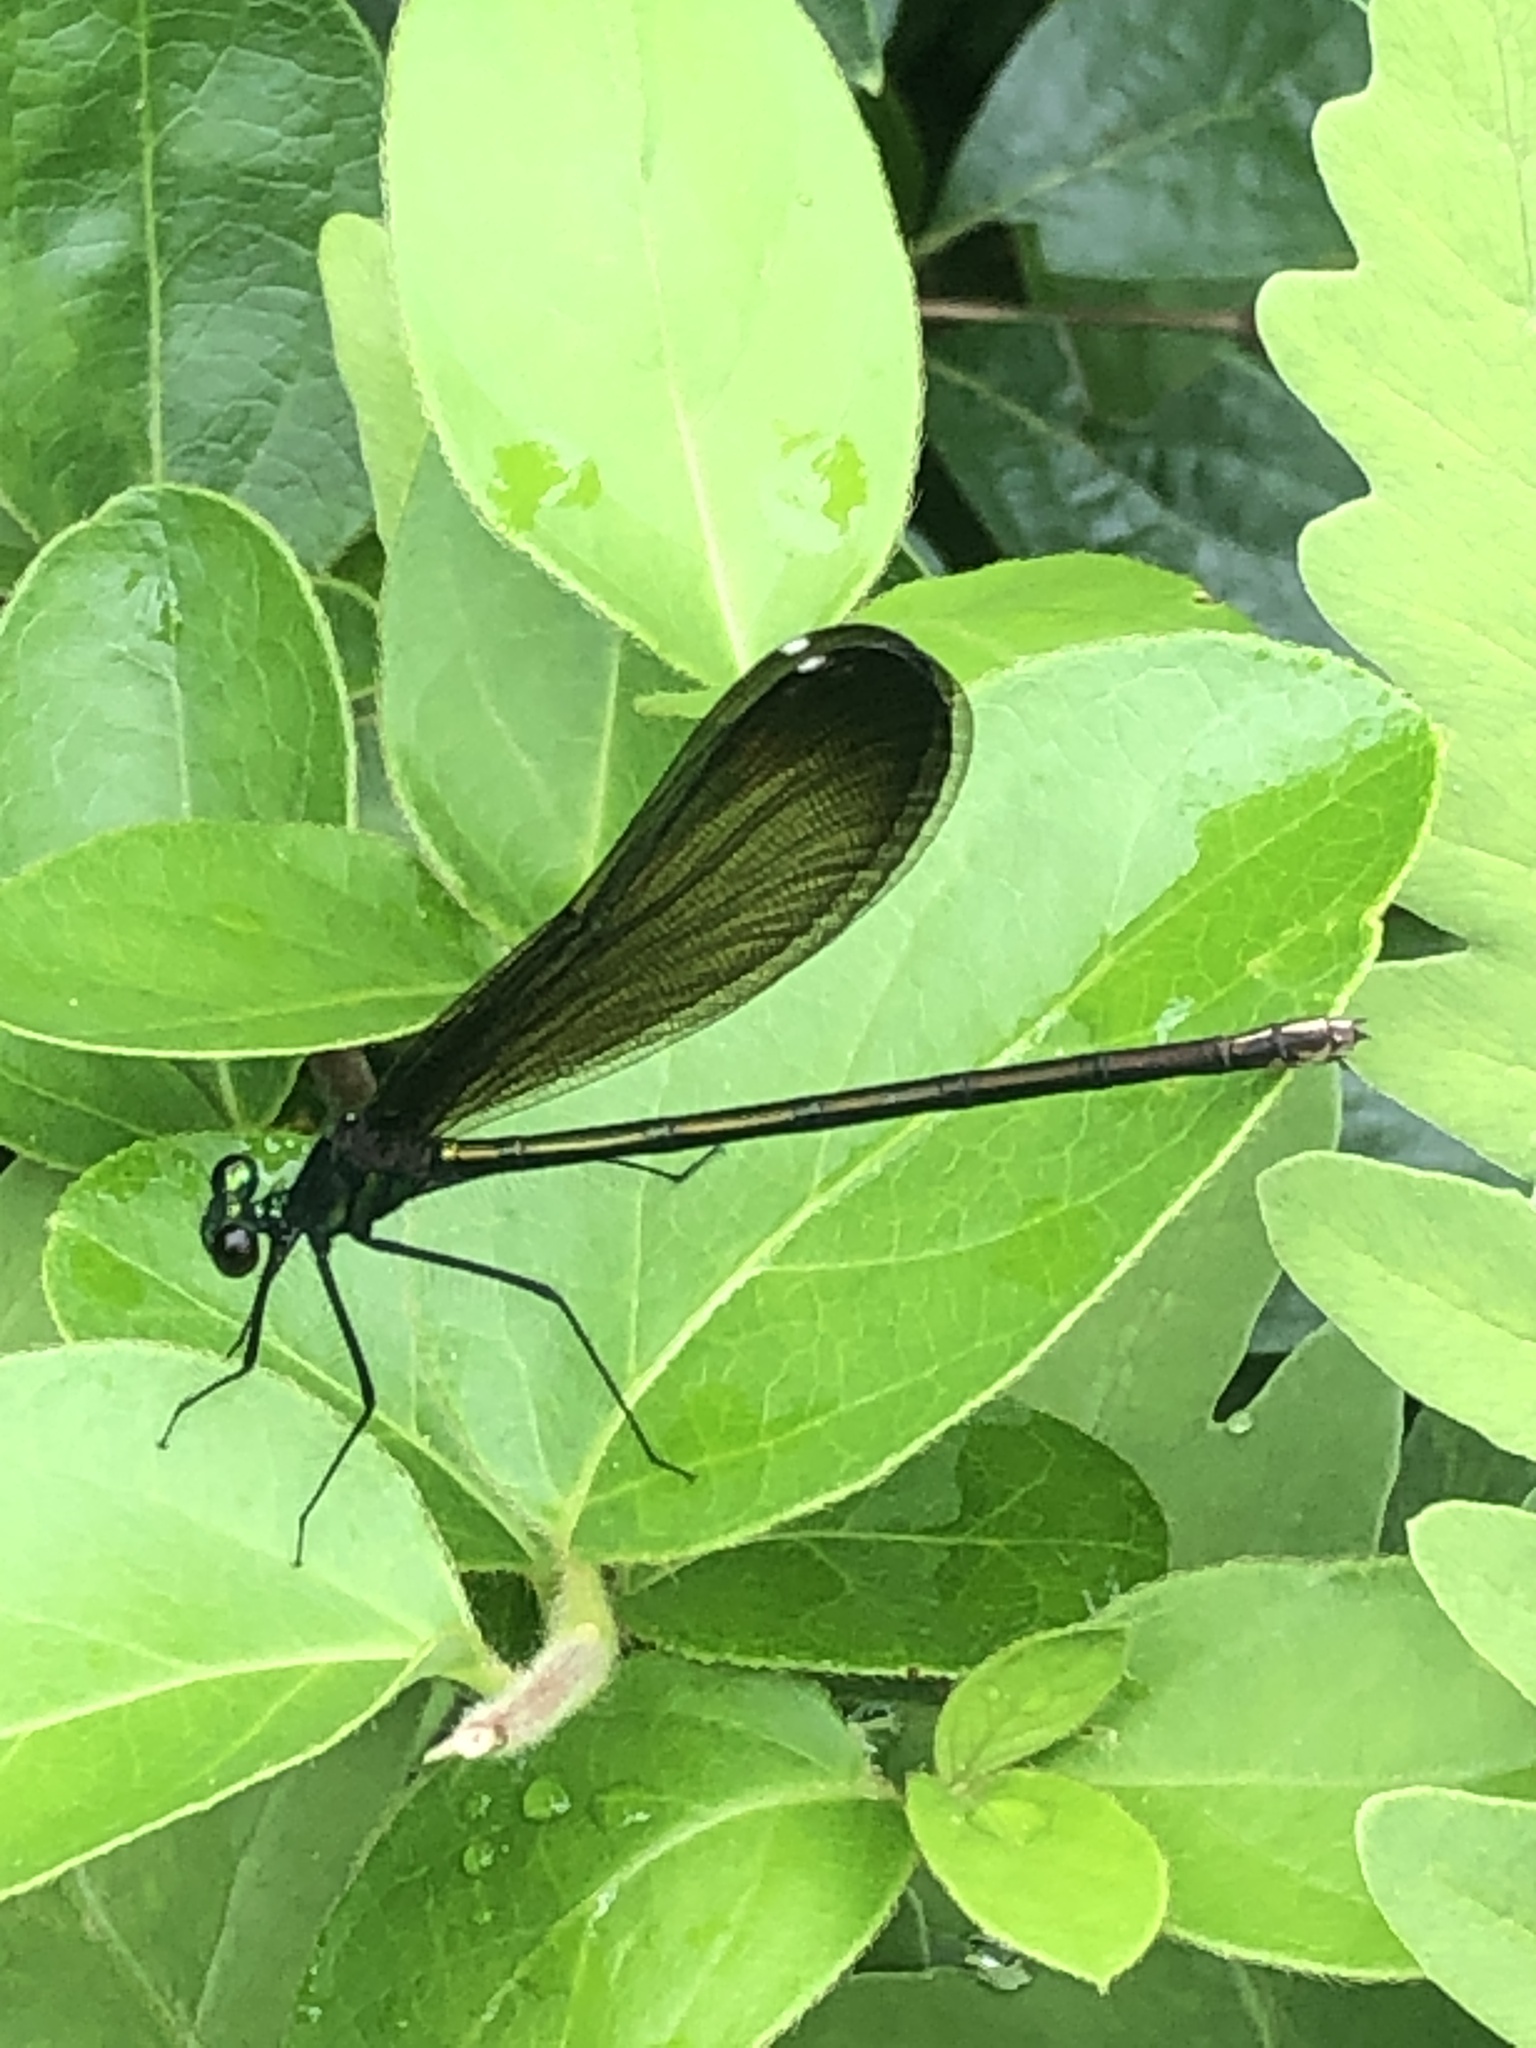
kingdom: Animalia
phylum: Arthropoda
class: Insecta
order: Odonata
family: Calopterygidae
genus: Calopteryx
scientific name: Calopteryx maculata
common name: Ebony jewelwing
